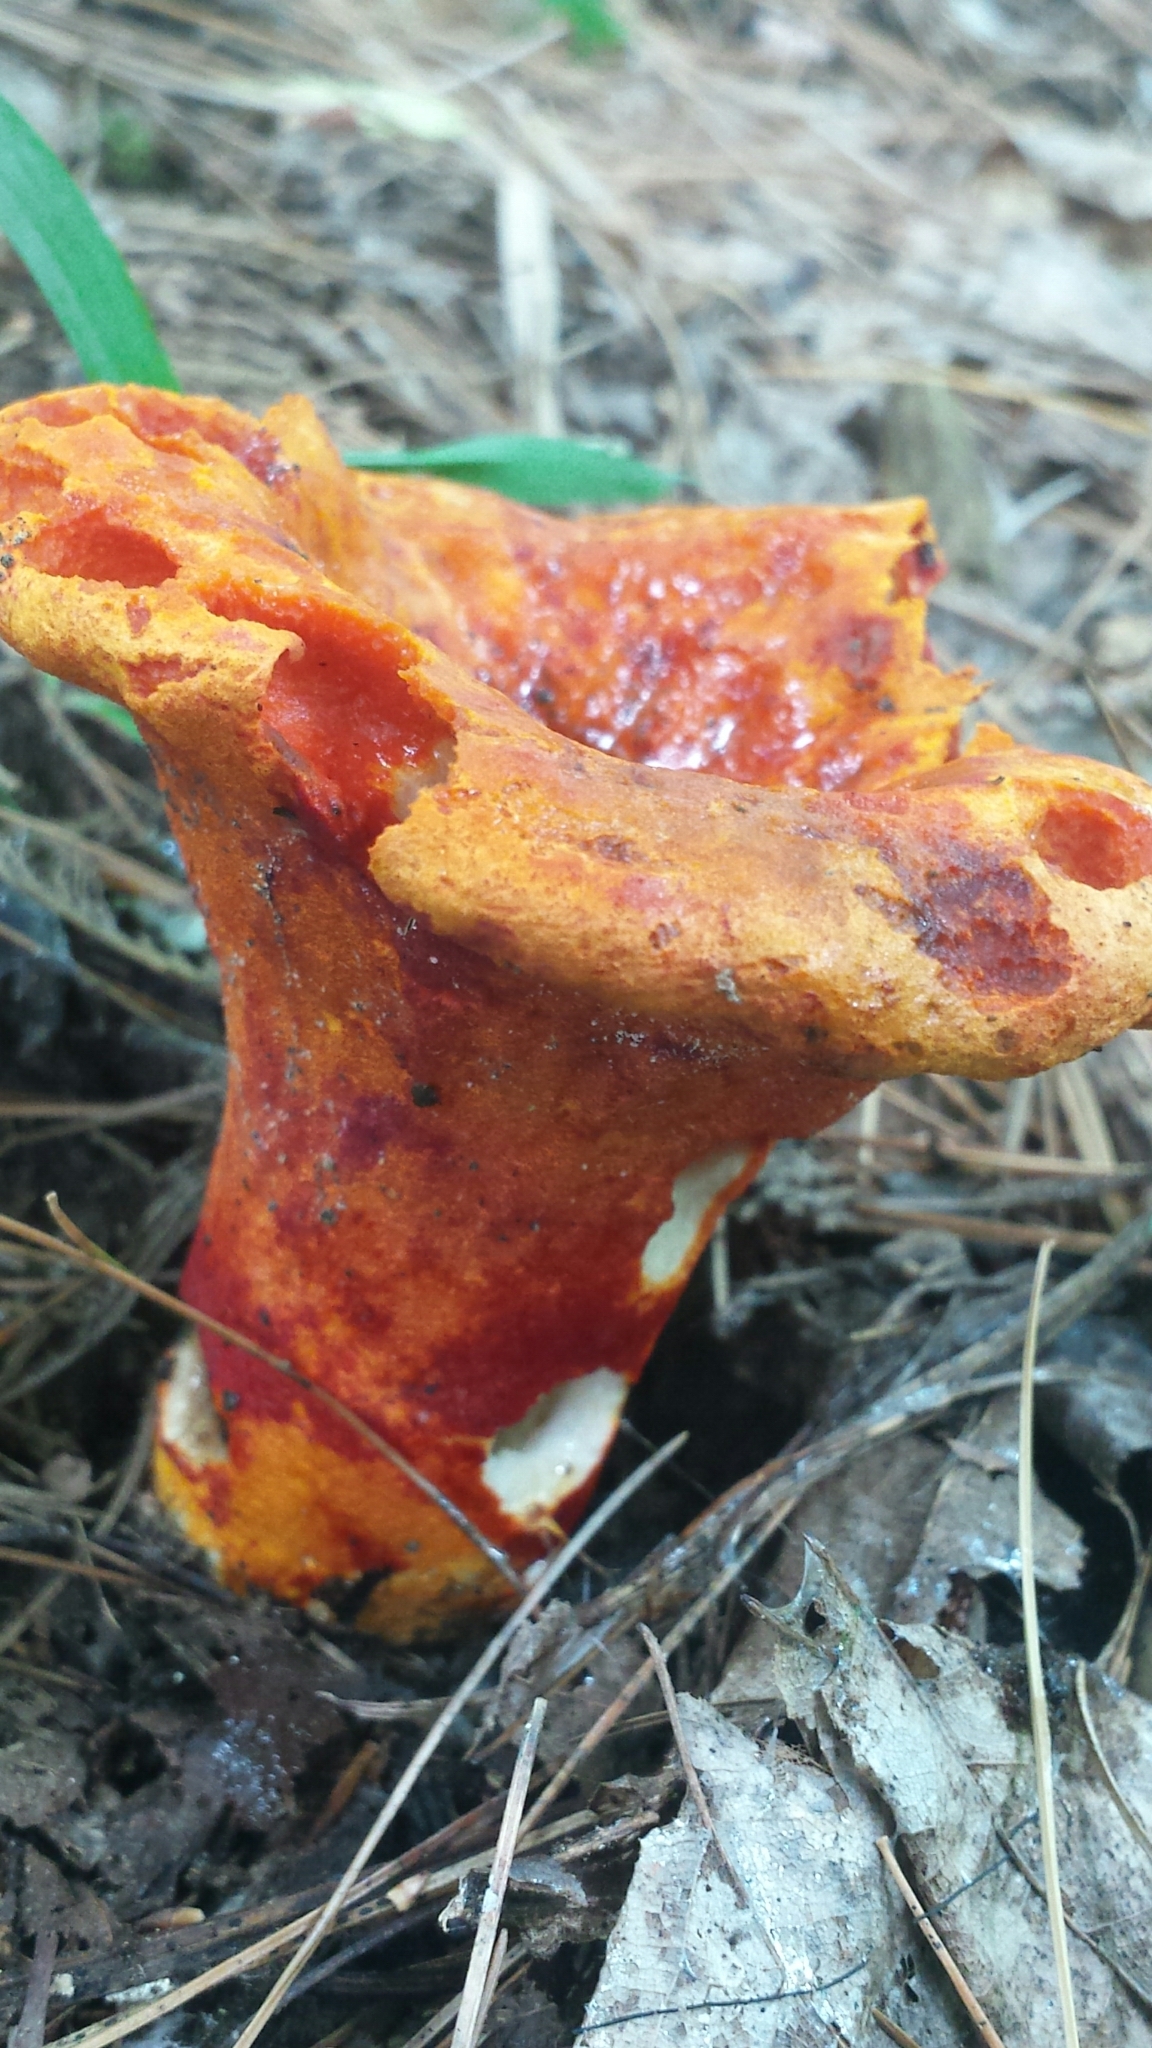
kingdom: Fungi
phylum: Ascomycota
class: Sordariomycetes
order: Hypocreales
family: Hypocreaceae
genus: Hypomyces
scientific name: Hypomyces lactifluorum
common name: Lobster mushroom
